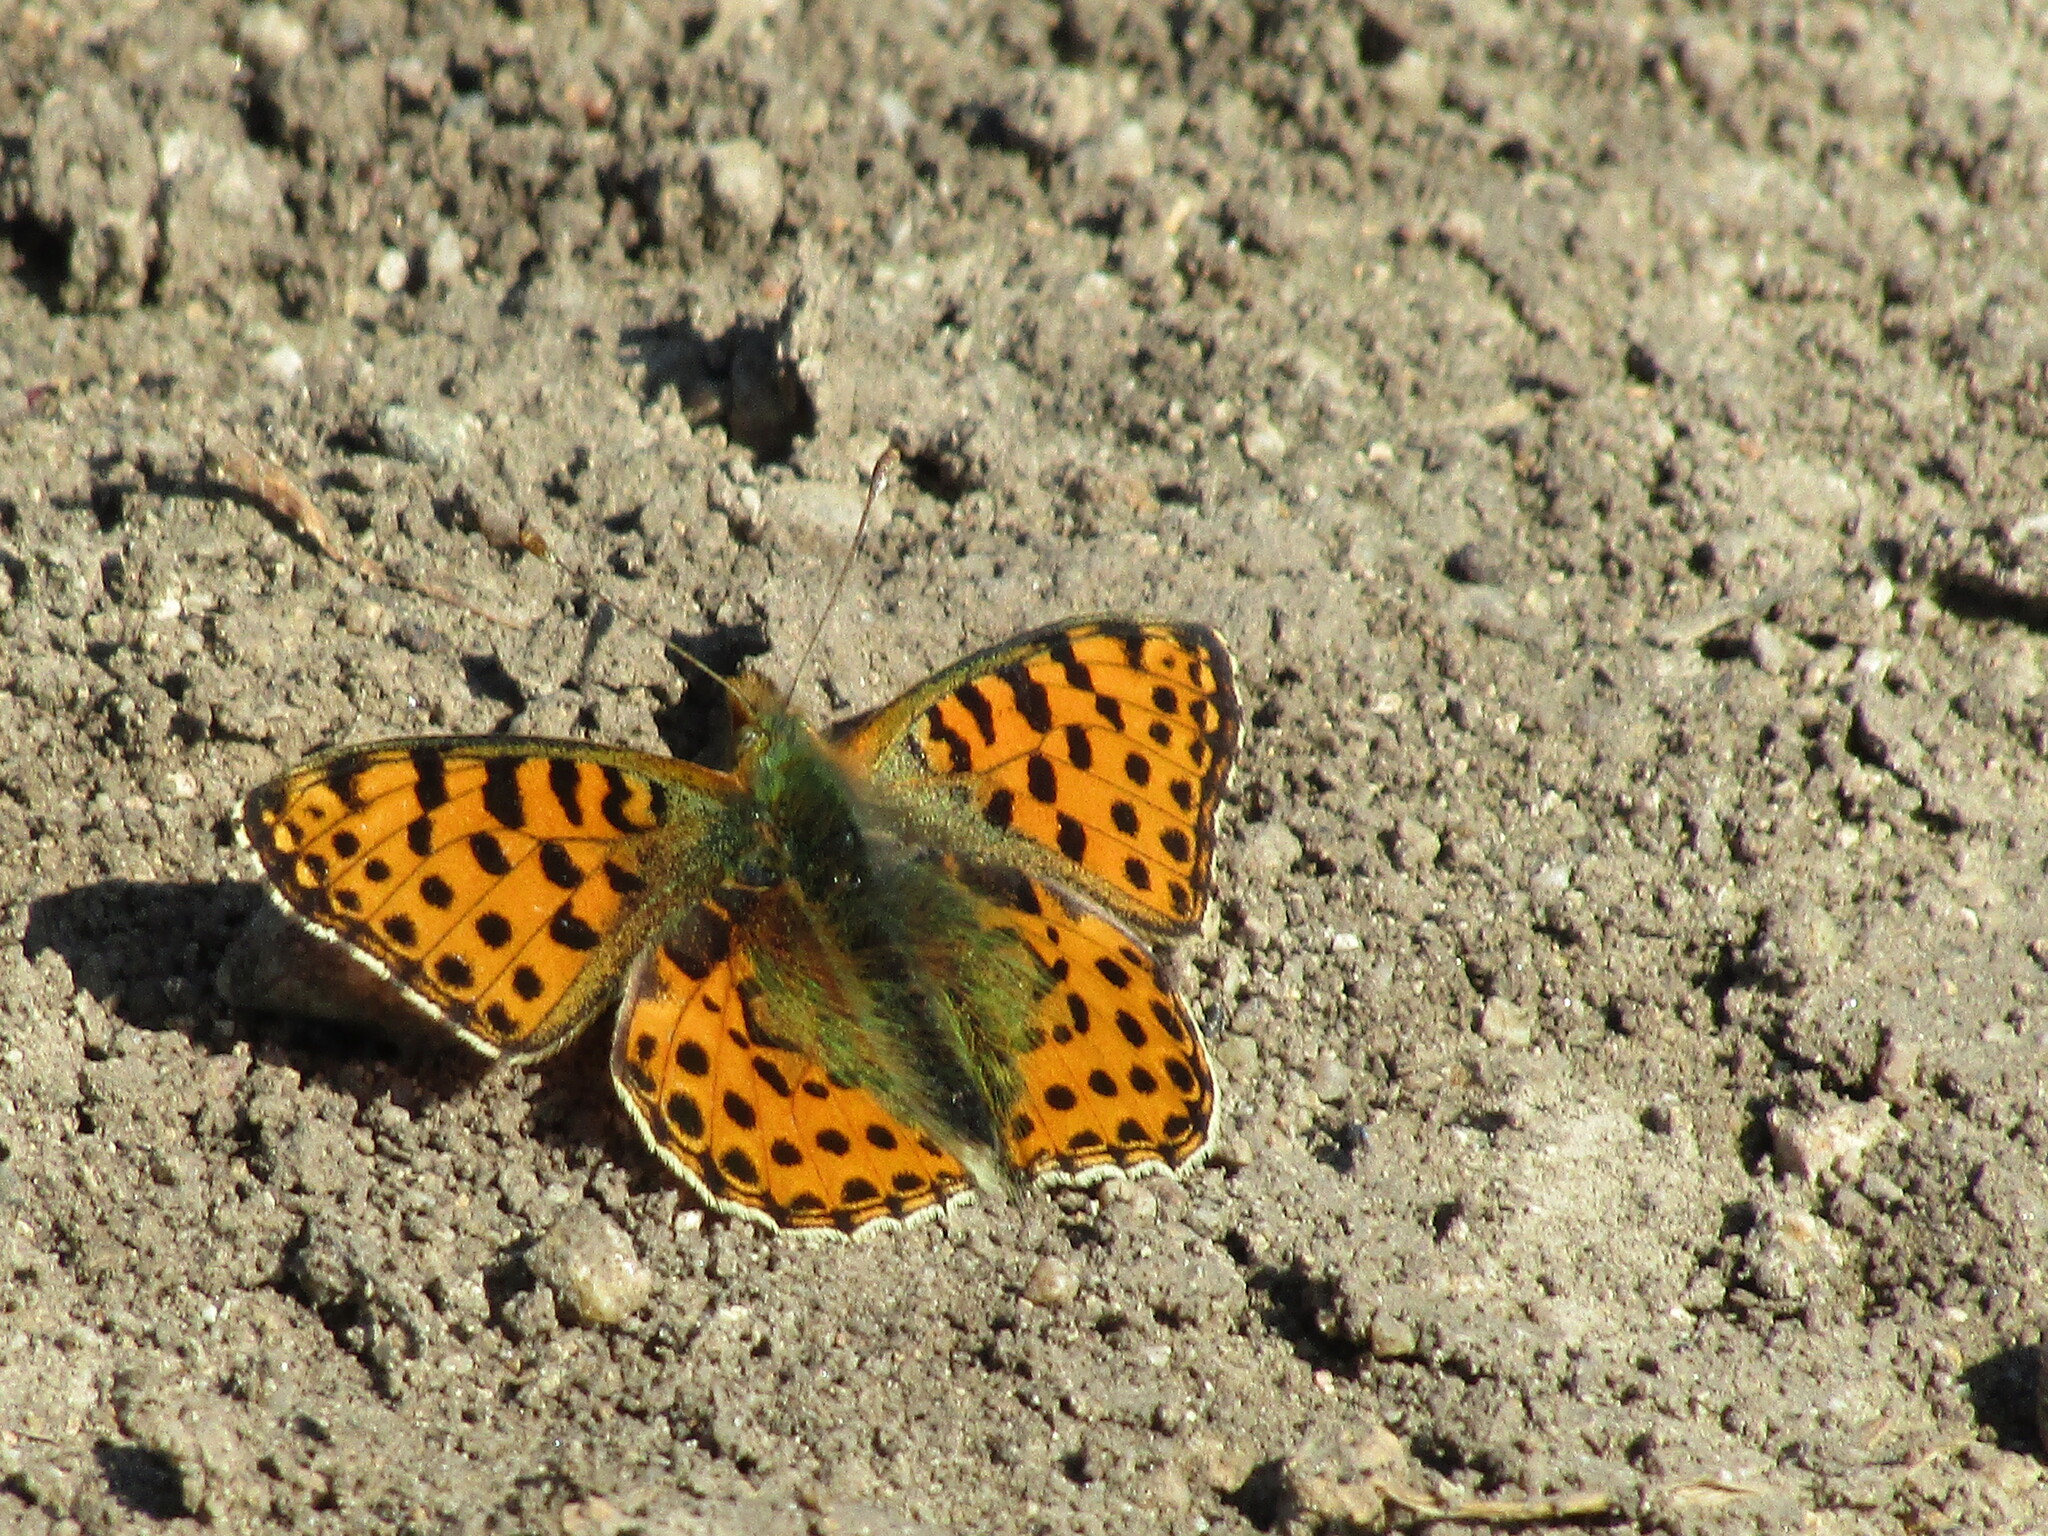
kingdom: Animalia
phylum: Arthropoda
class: Insecta
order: Lepidoptera
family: Nymphalidae
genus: Issoria
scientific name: Issoria lathonia
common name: Queen of spain fritillary
